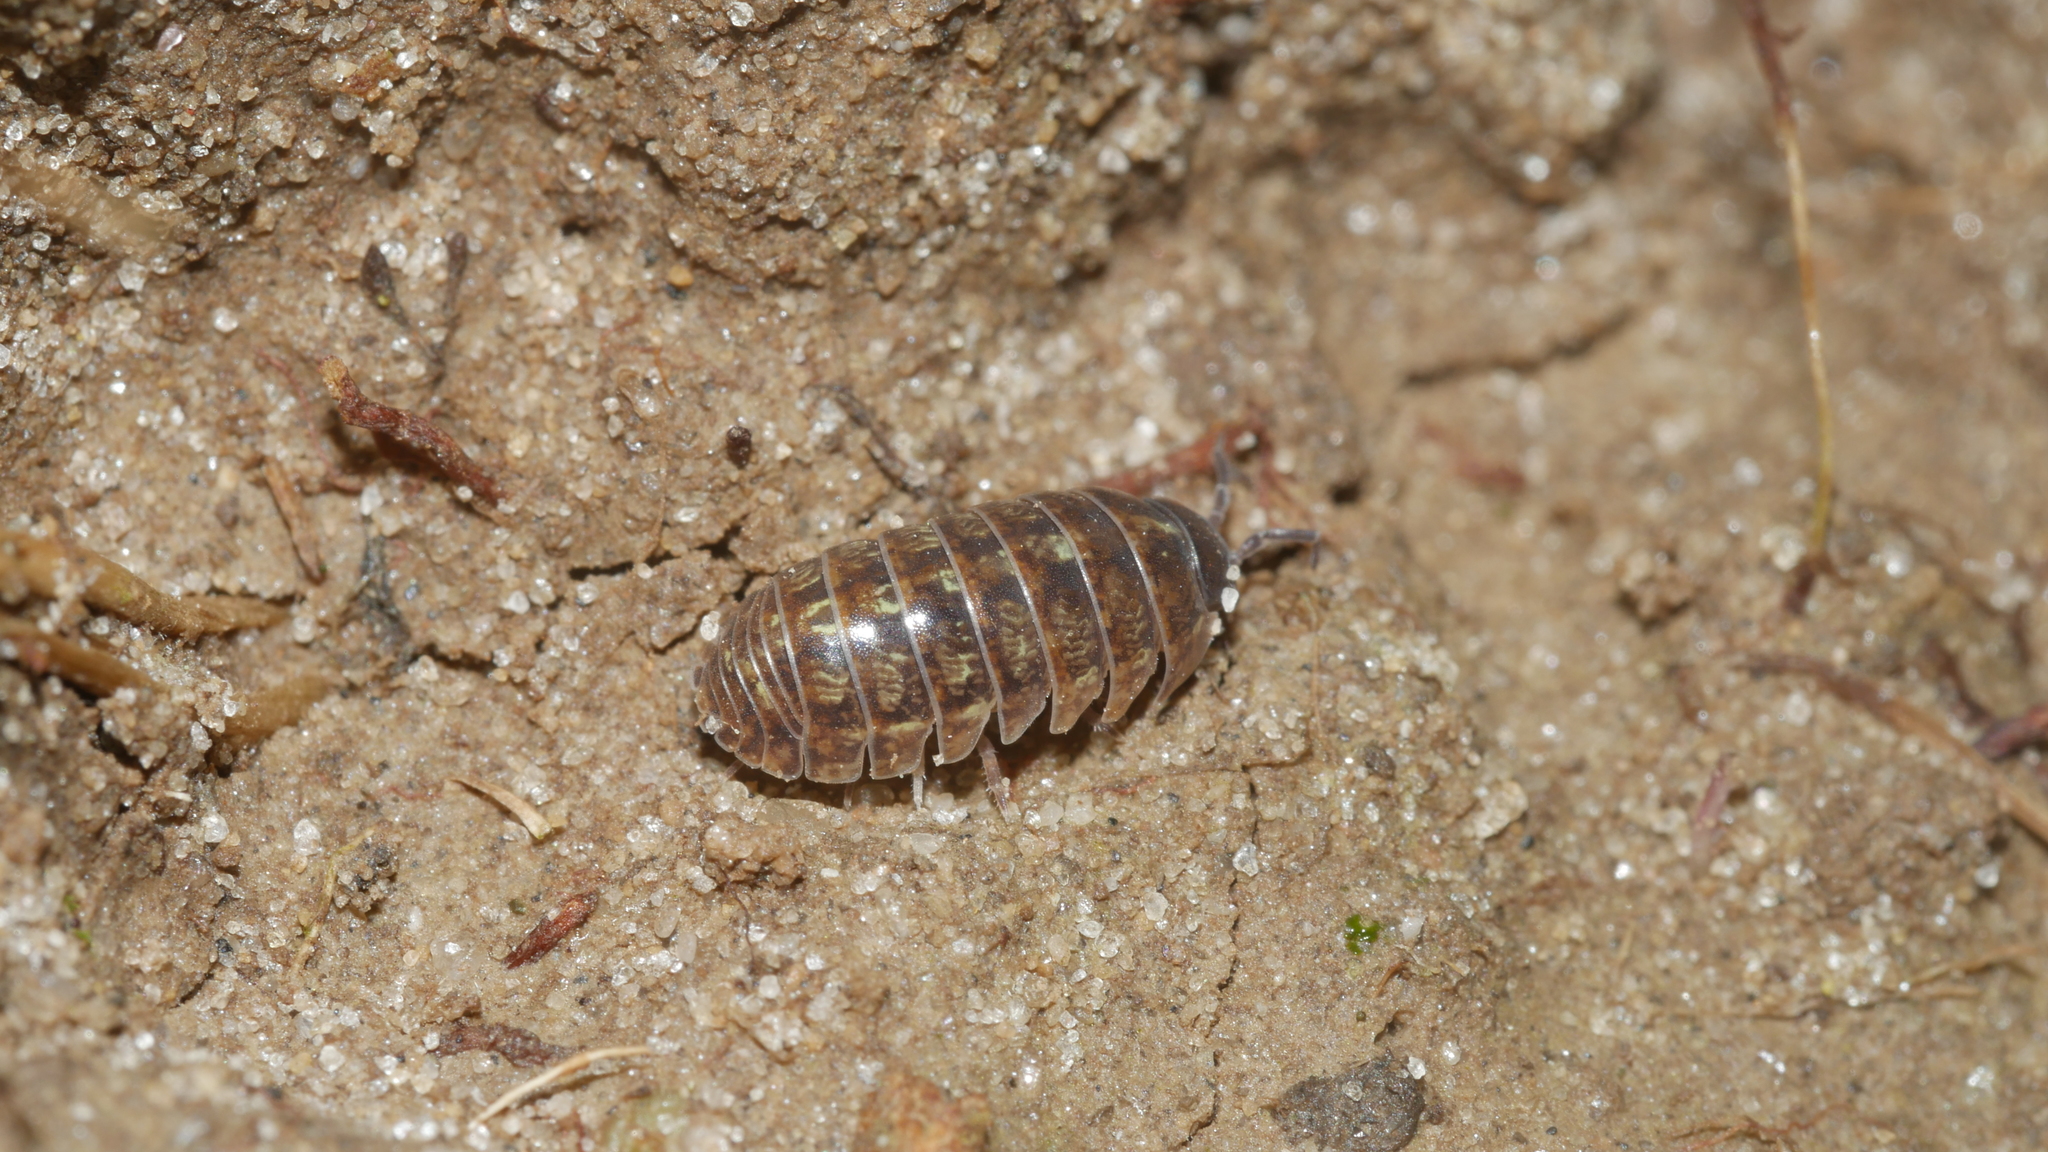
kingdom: Animalia
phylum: Arthropoda
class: Malacostraca
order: Isopoda
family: Armadillidiidae
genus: Armadillidium
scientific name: Armadillidium vulgare
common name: Common pill woodlouse
